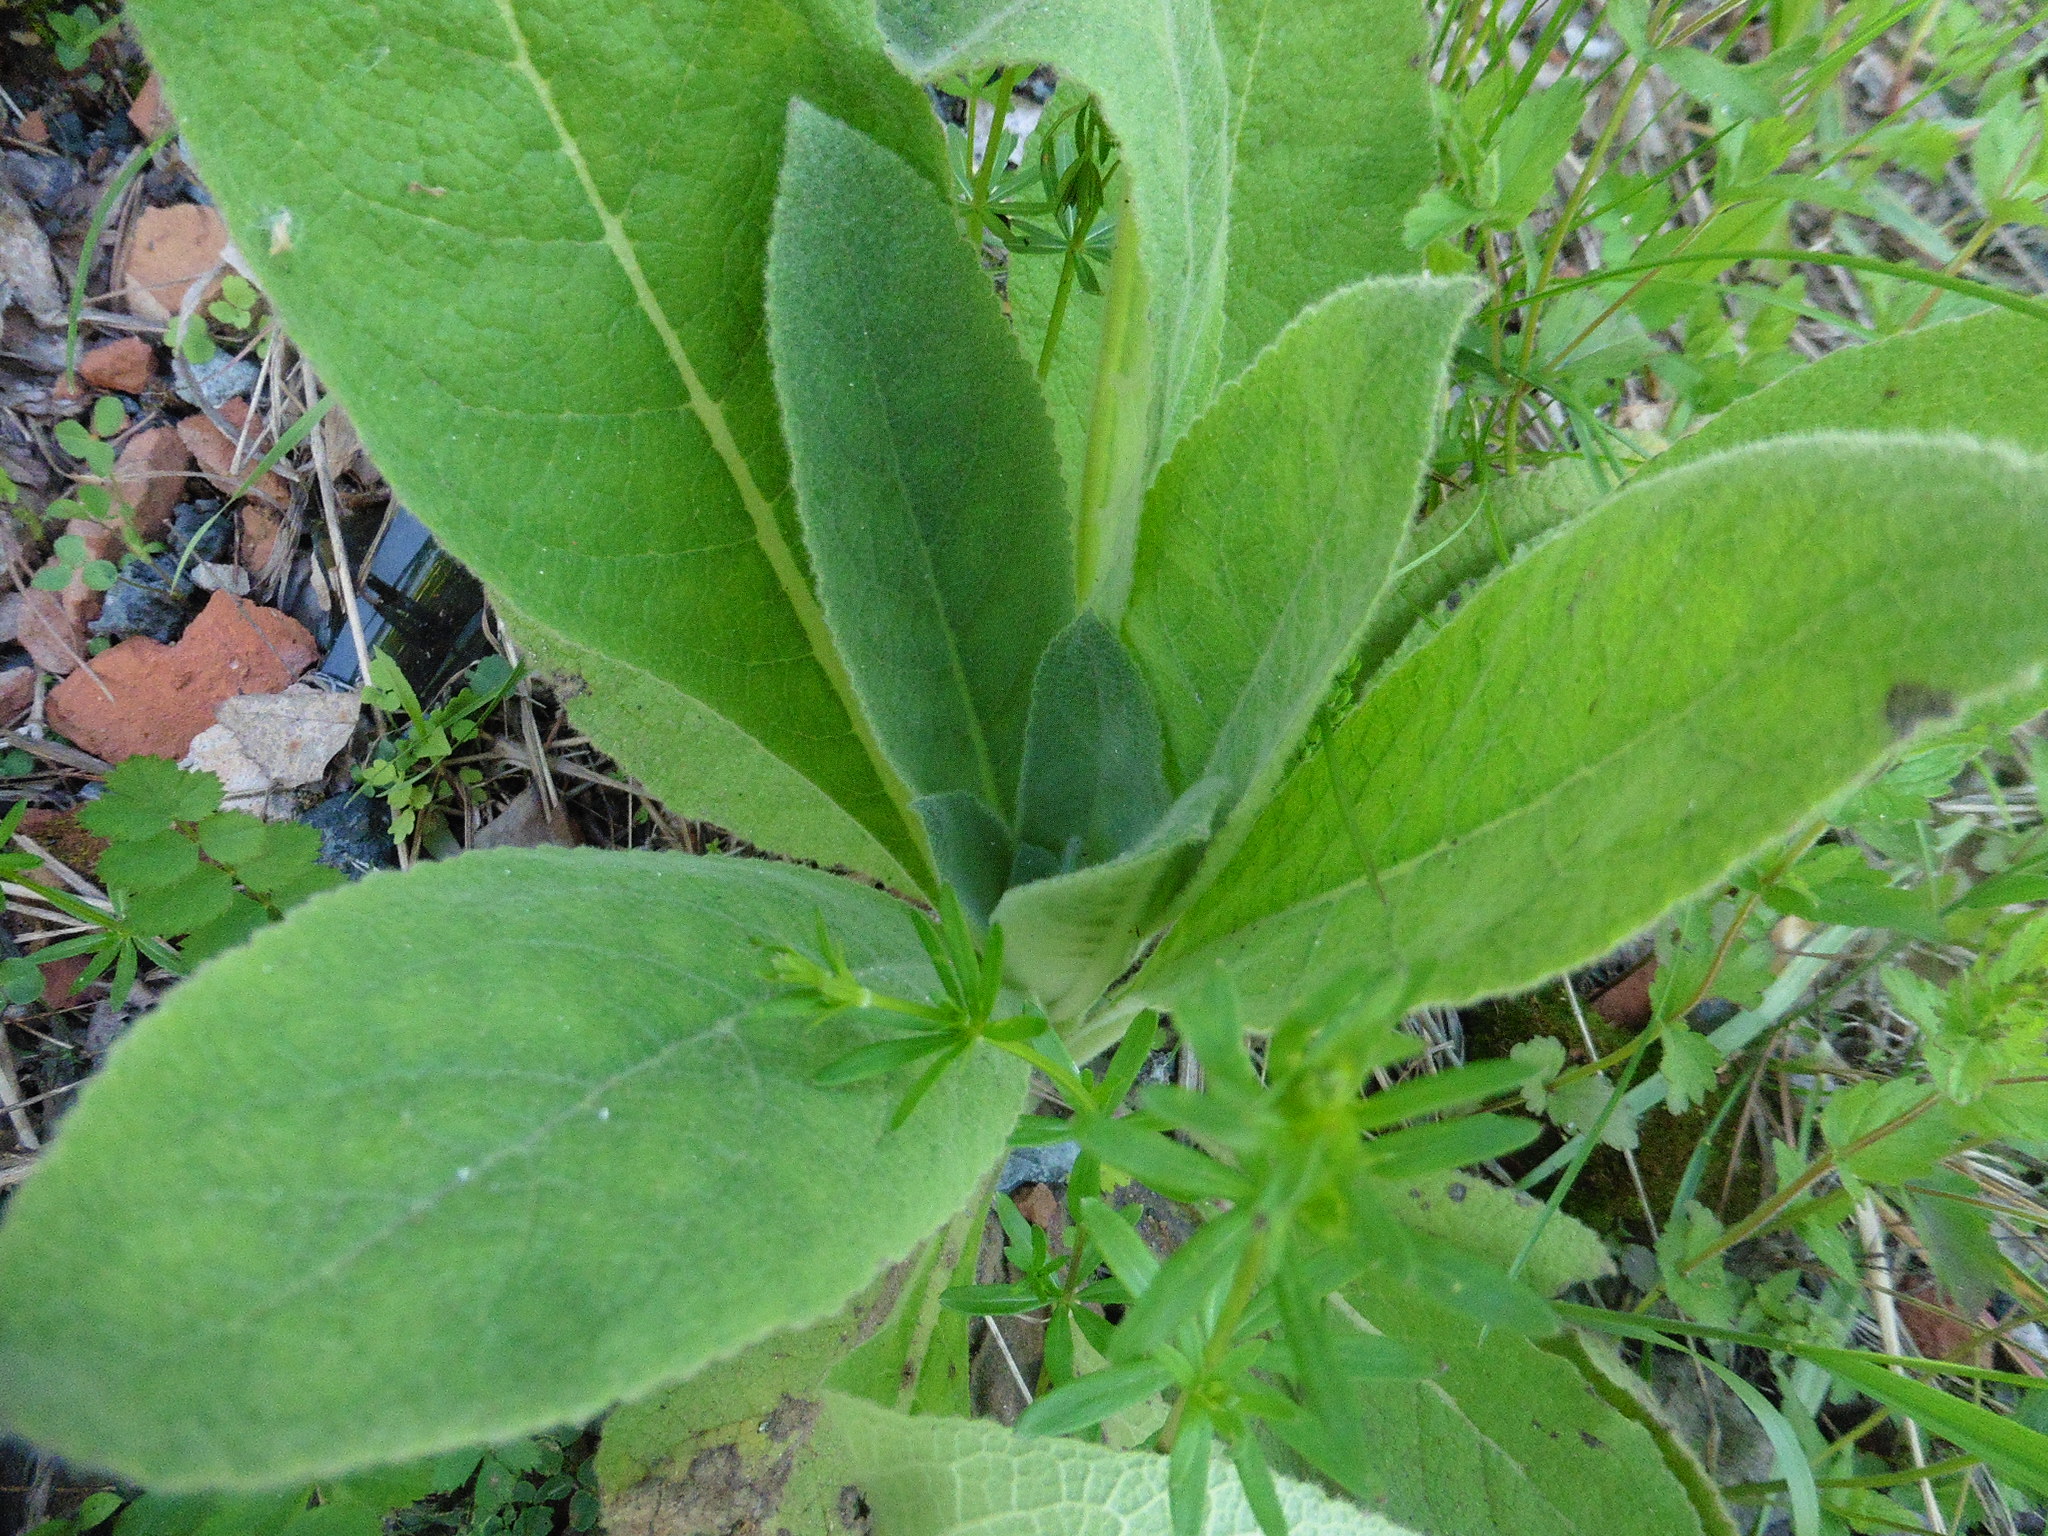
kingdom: Plantae
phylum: Tracheophyta
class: Magnoliopsida
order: Lamiales
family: Scrophulariaceae
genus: Verbascum
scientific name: Verbascum thapsus
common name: Common mullein
